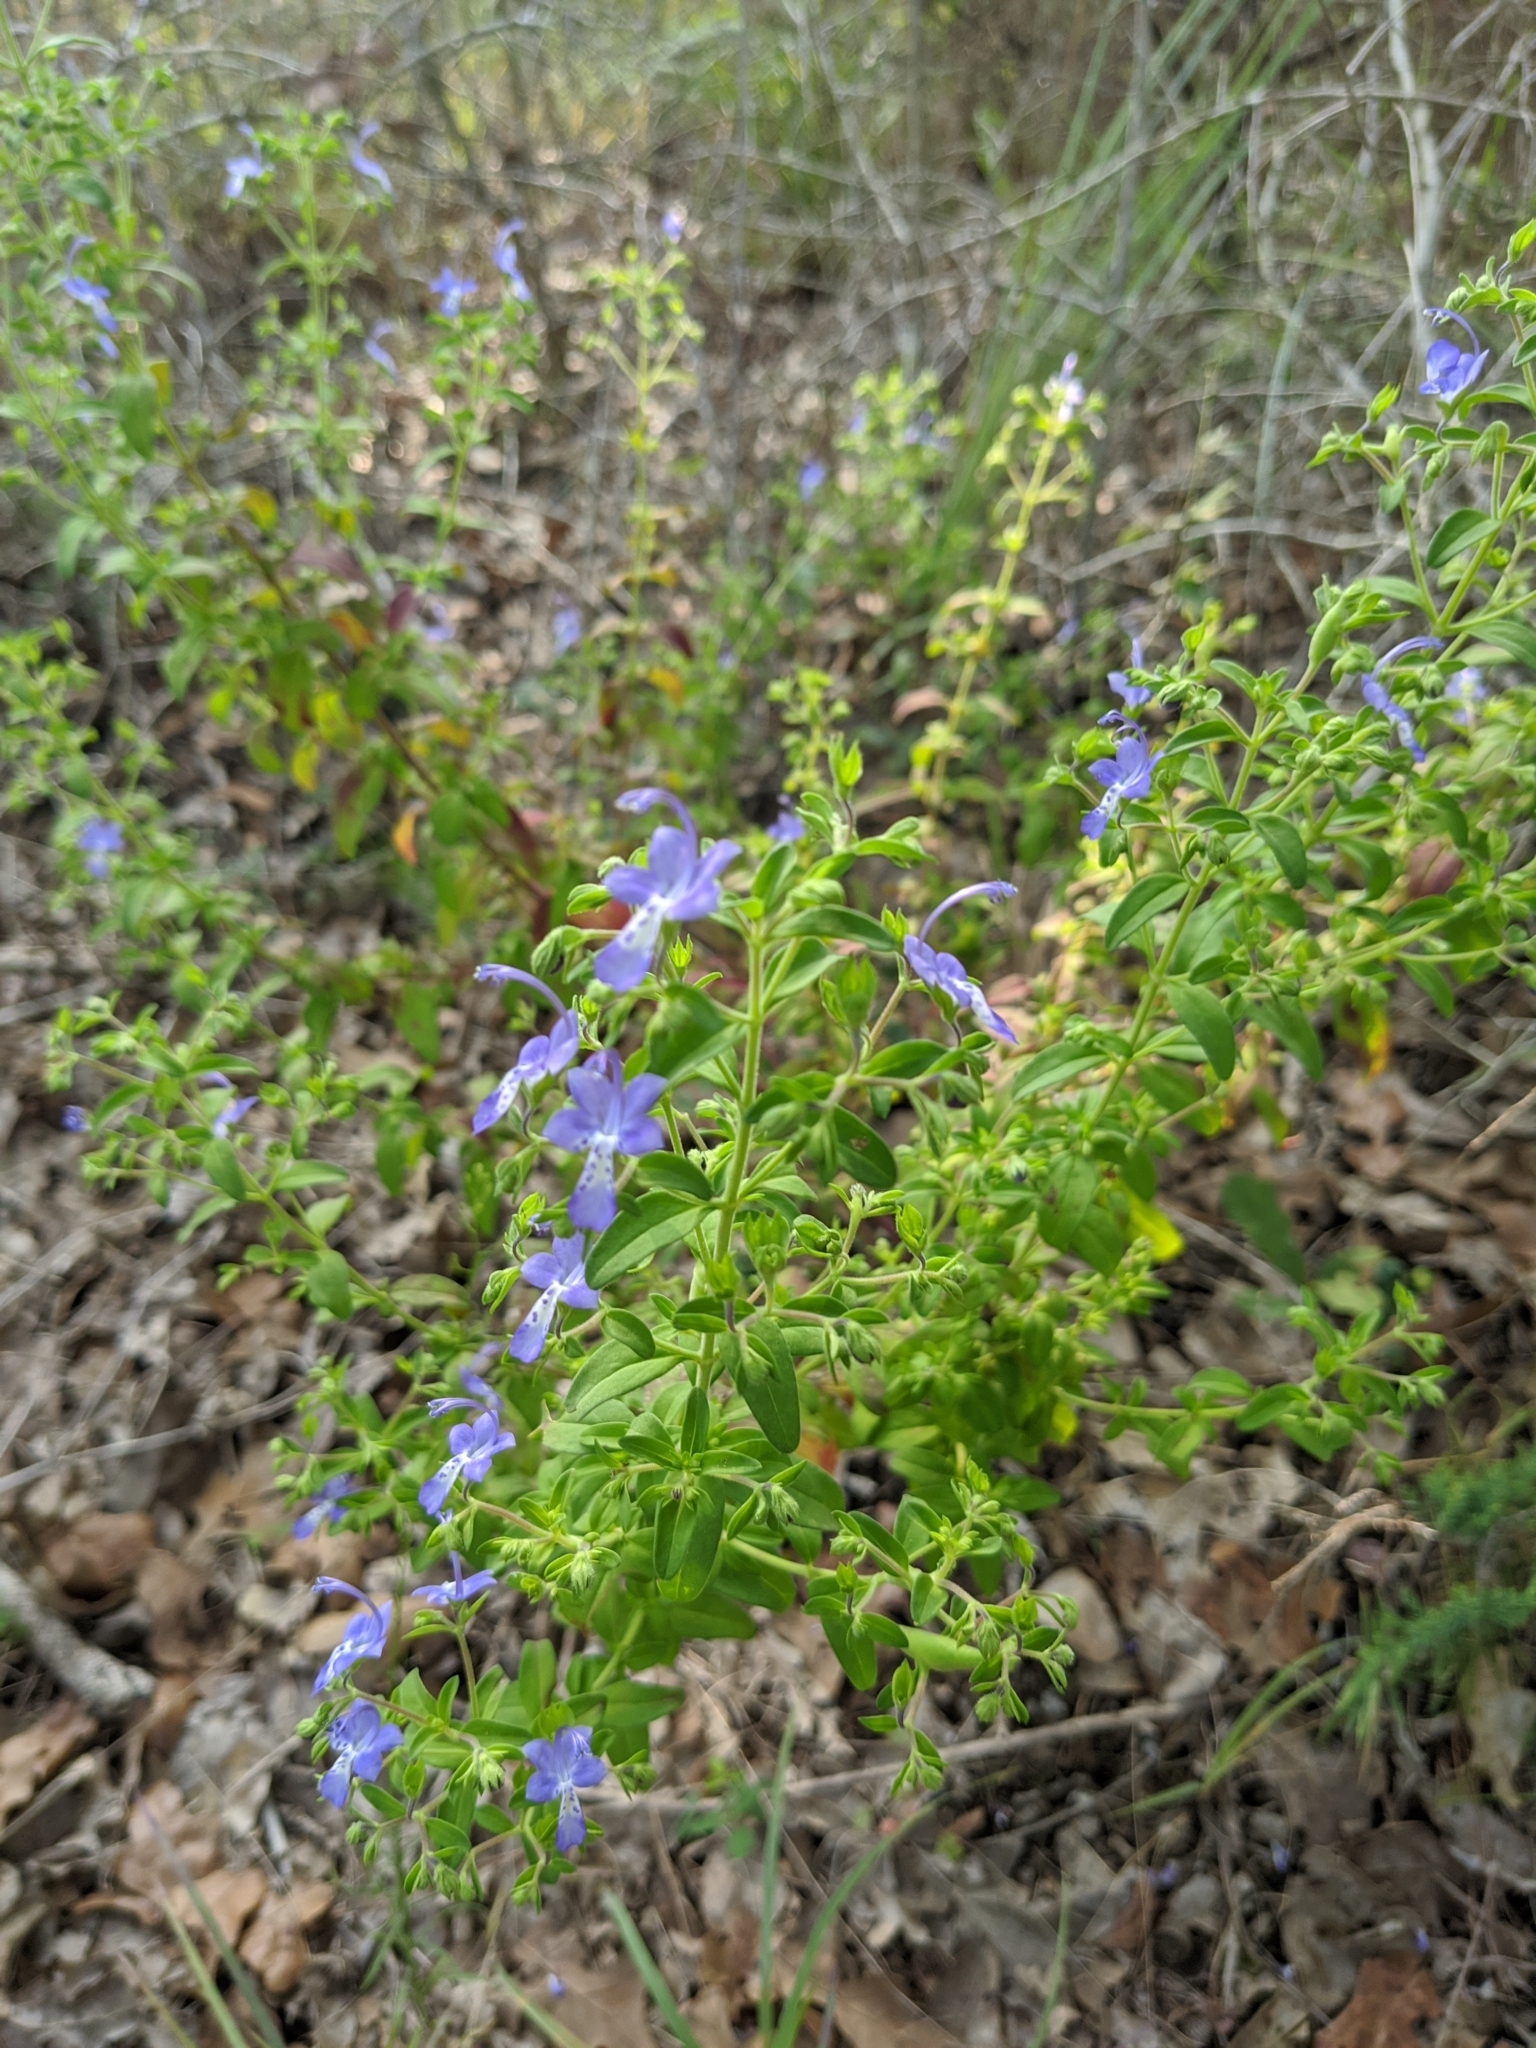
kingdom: Plantae
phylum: Tracheophyta
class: Magnoliopsida
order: Lamiales
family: Lamiaceae
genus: Trichostema
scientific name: Trichostema dichotomum
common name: Bastard pennyroyal
